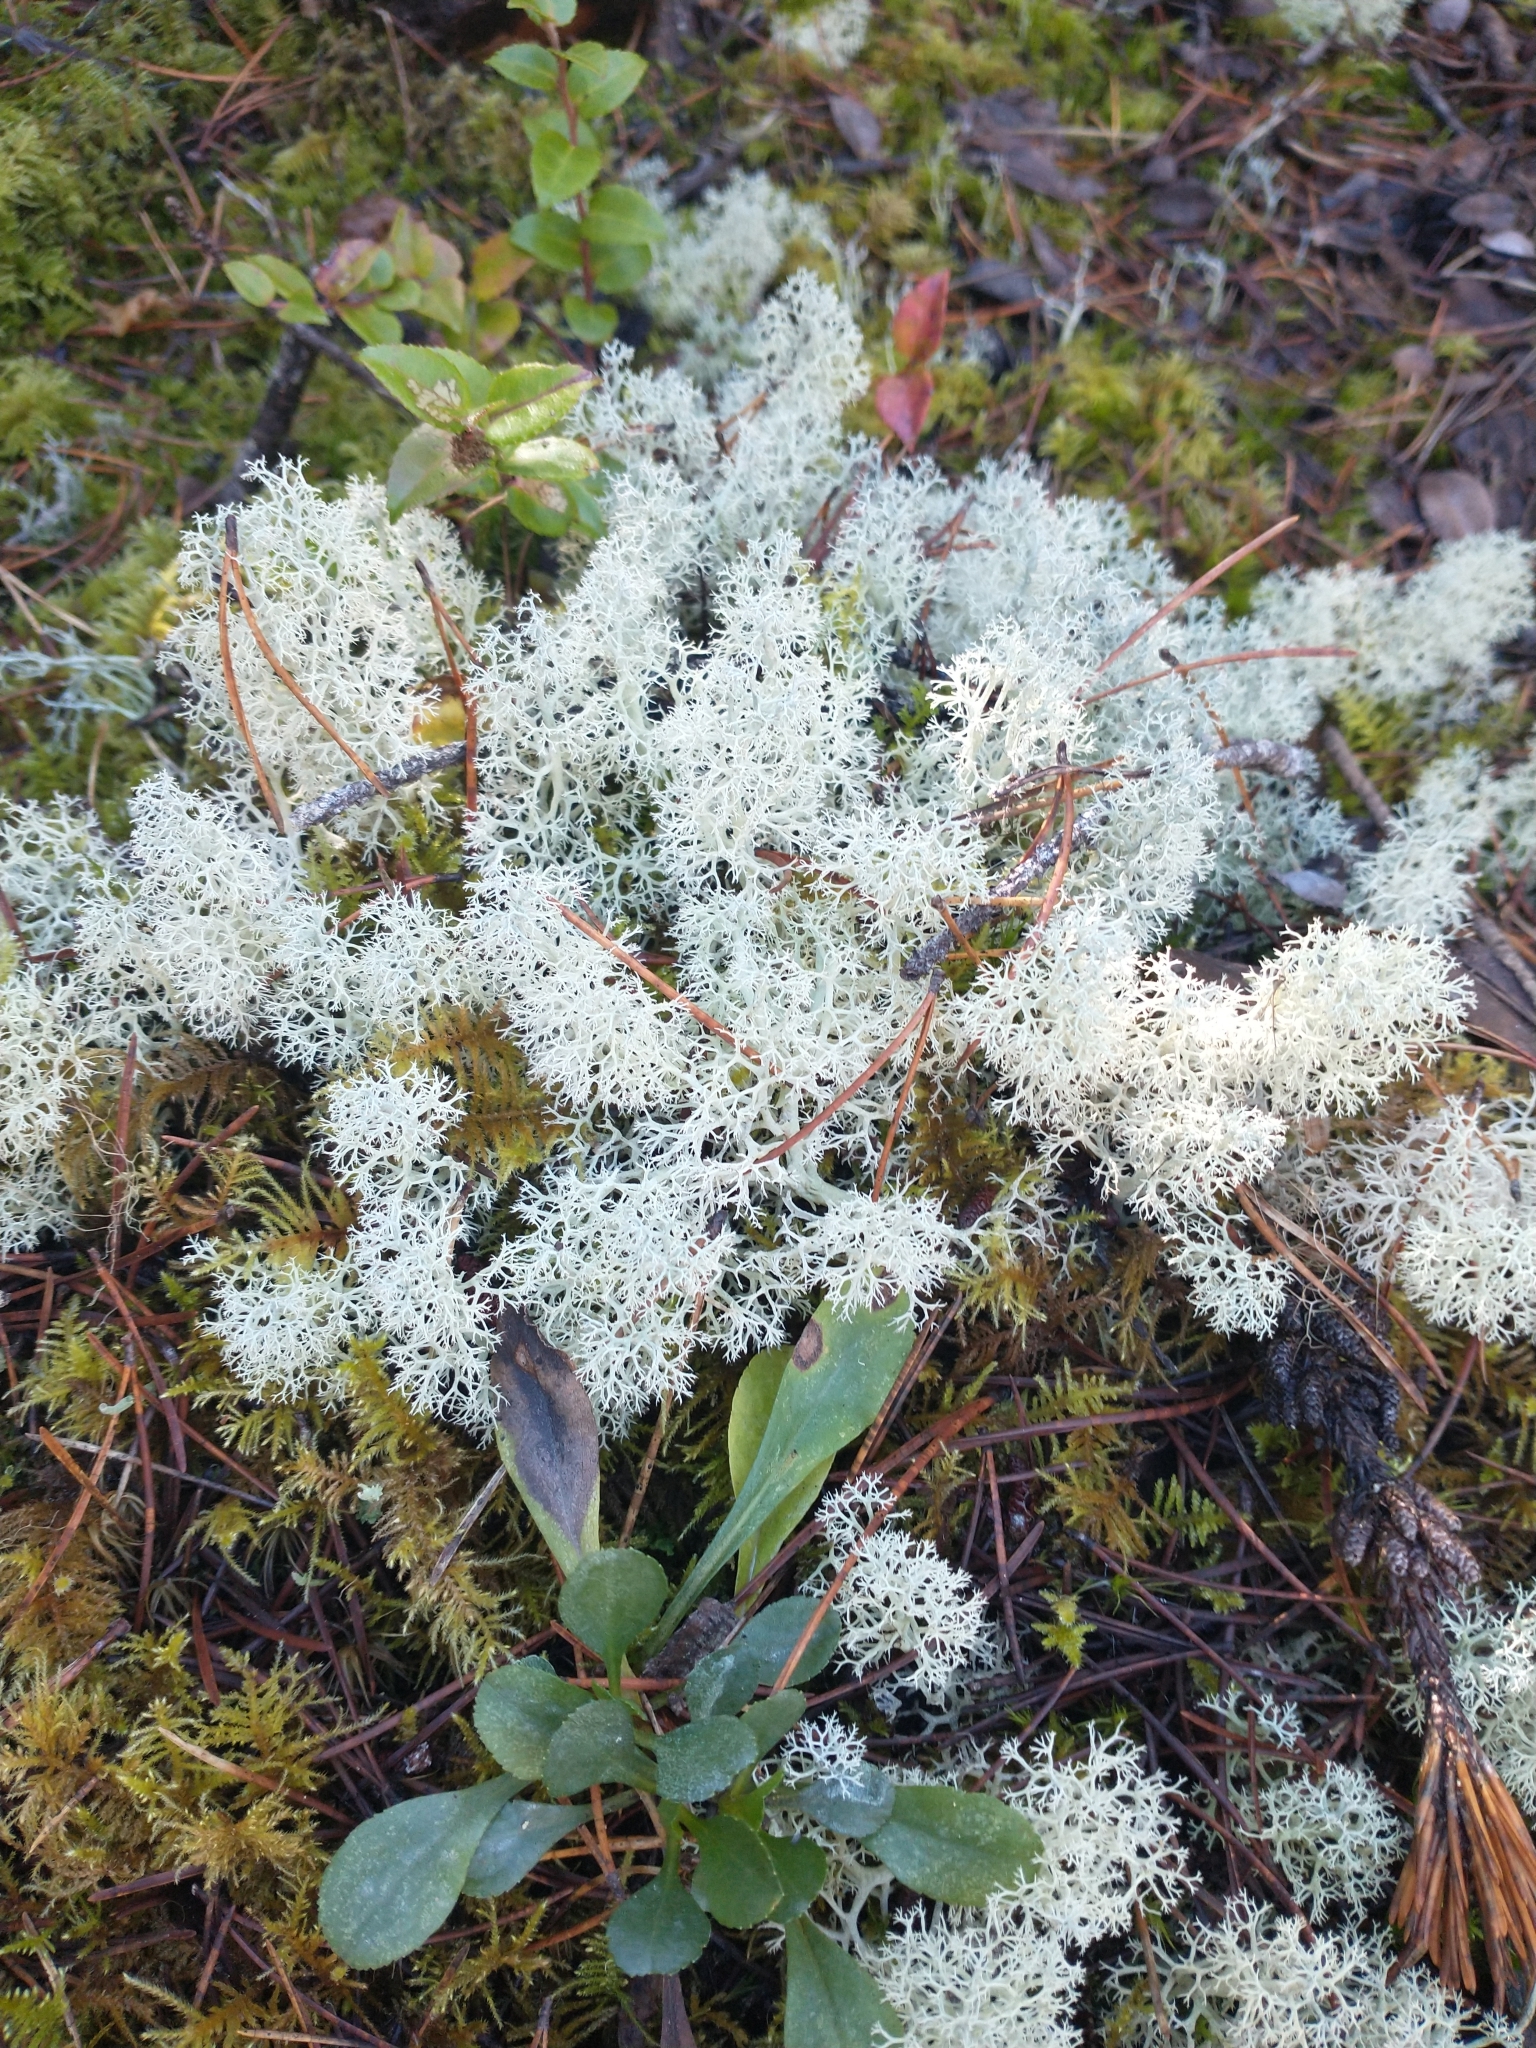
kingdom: Fungi
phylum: Ascomycota
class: Lecanoromycetes
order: Lecanorales
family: Cladoniaceae
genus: Cladonia
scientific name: Cladonia portentosa
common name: Reindeer lichen
